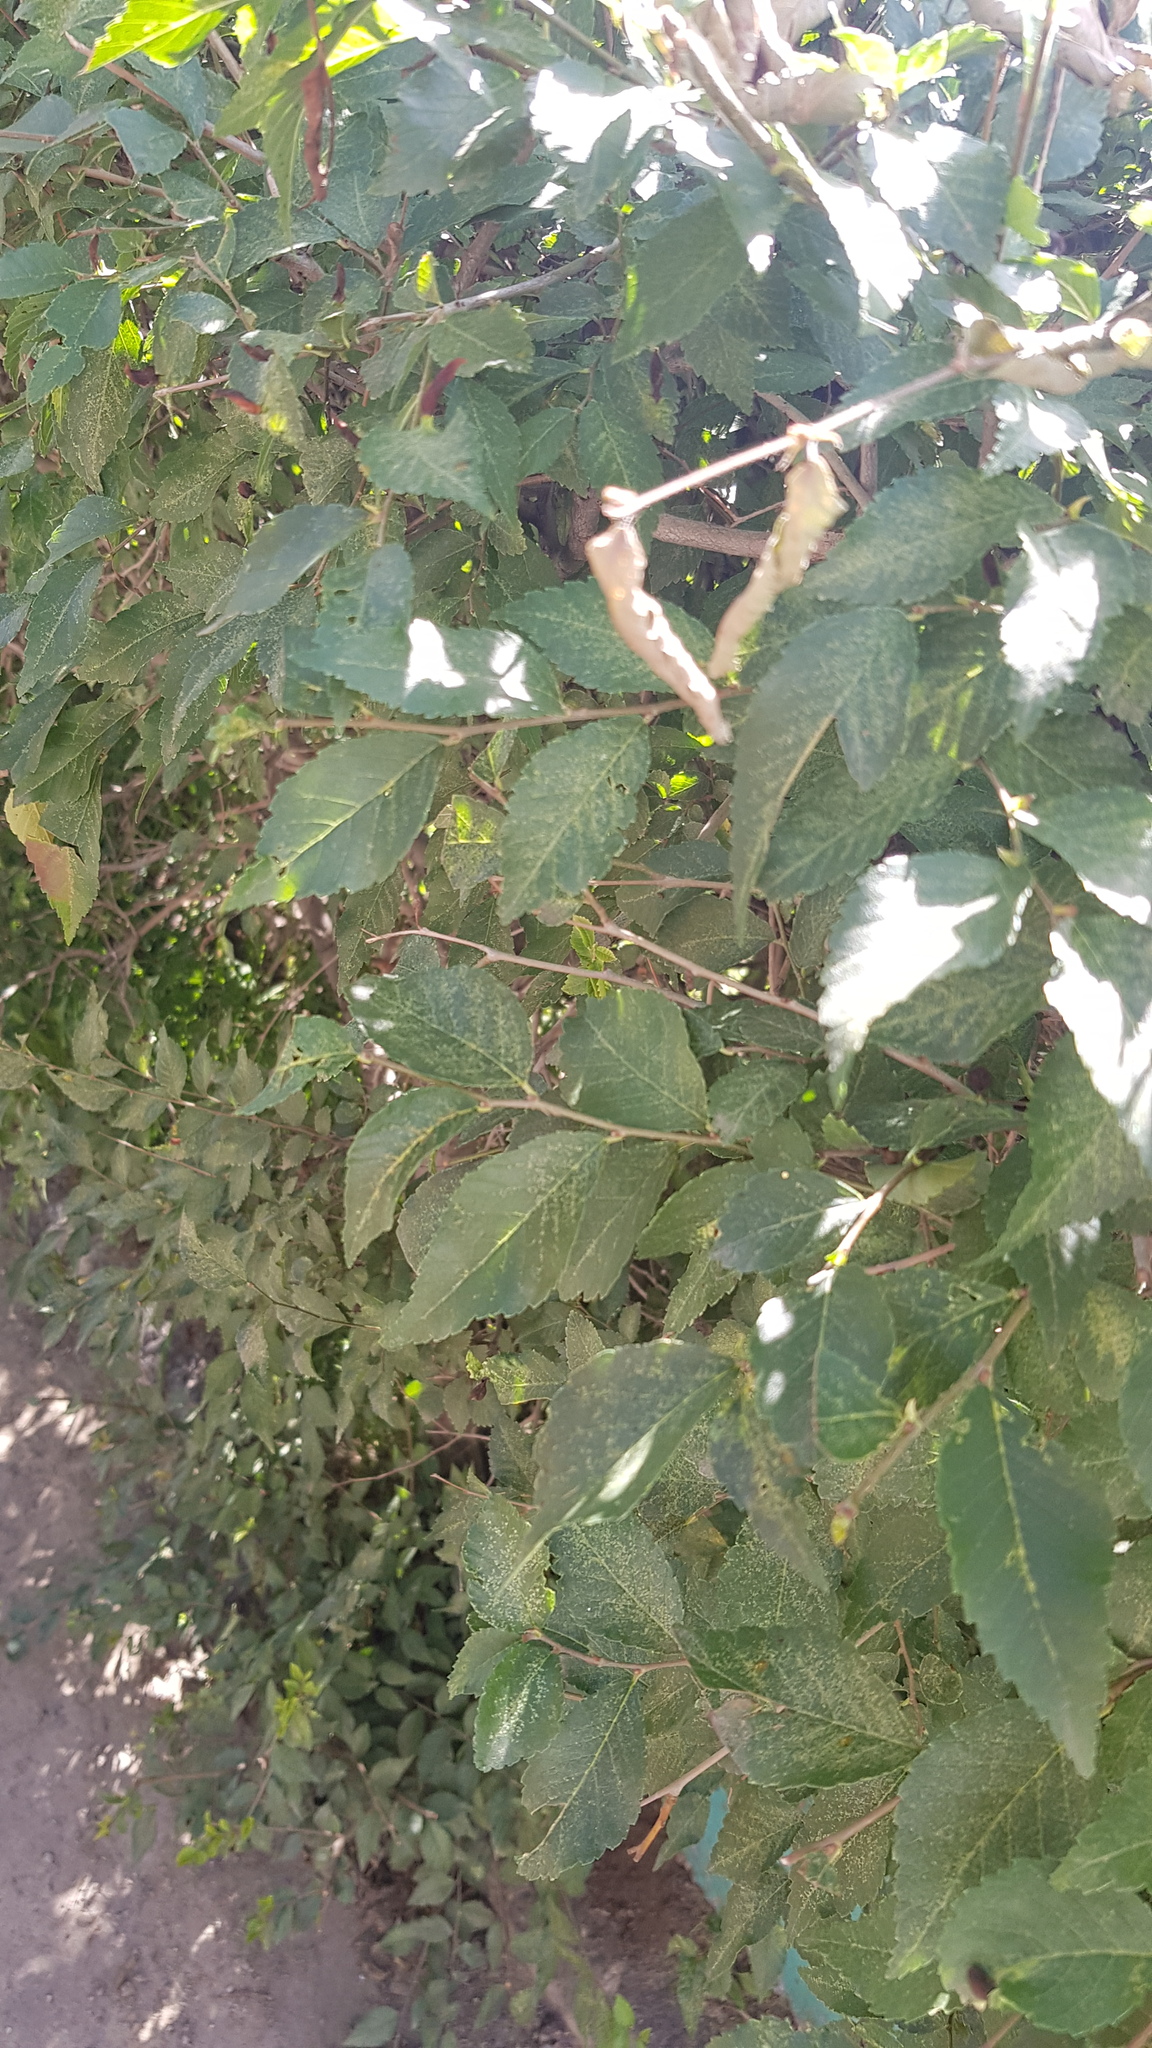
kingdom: Plantae
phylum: Tracheophyta
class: Magnoliopsida
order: Rosales
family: Ulmaceae
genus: Ulmus
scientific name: Ulmus pumila
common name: Siberian elm
